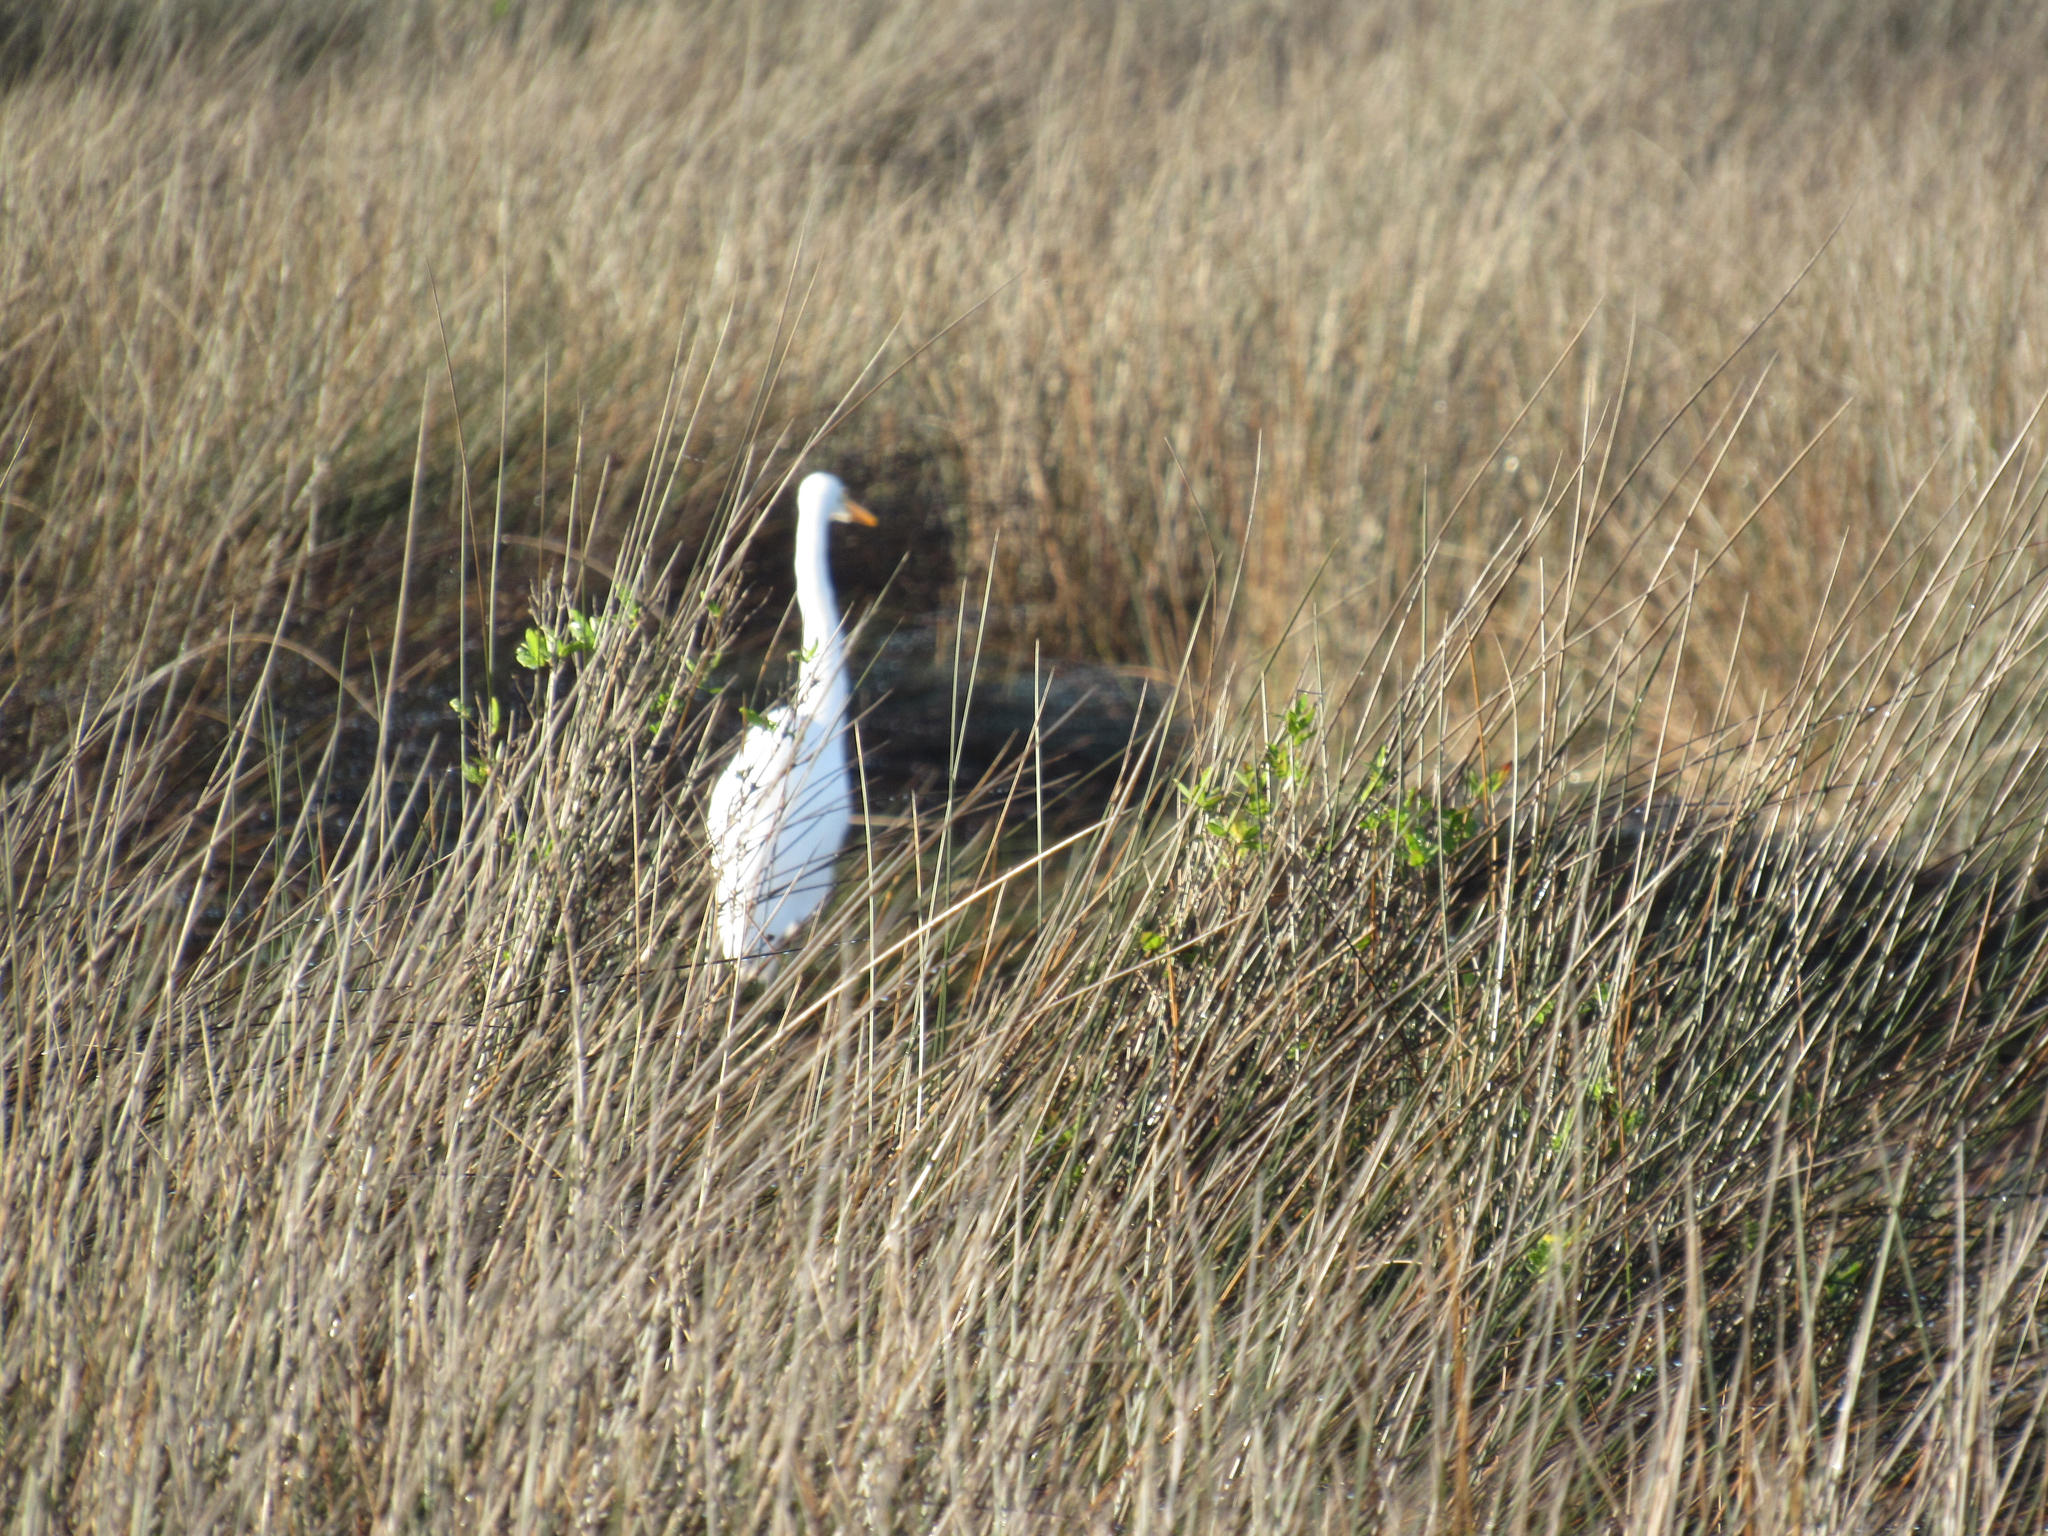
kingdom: Animalia
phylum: Chordata
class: Aves
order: Pelecaniformes
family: Ardeidae
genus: Ardea
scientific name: Ardea alba
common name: Great egret
